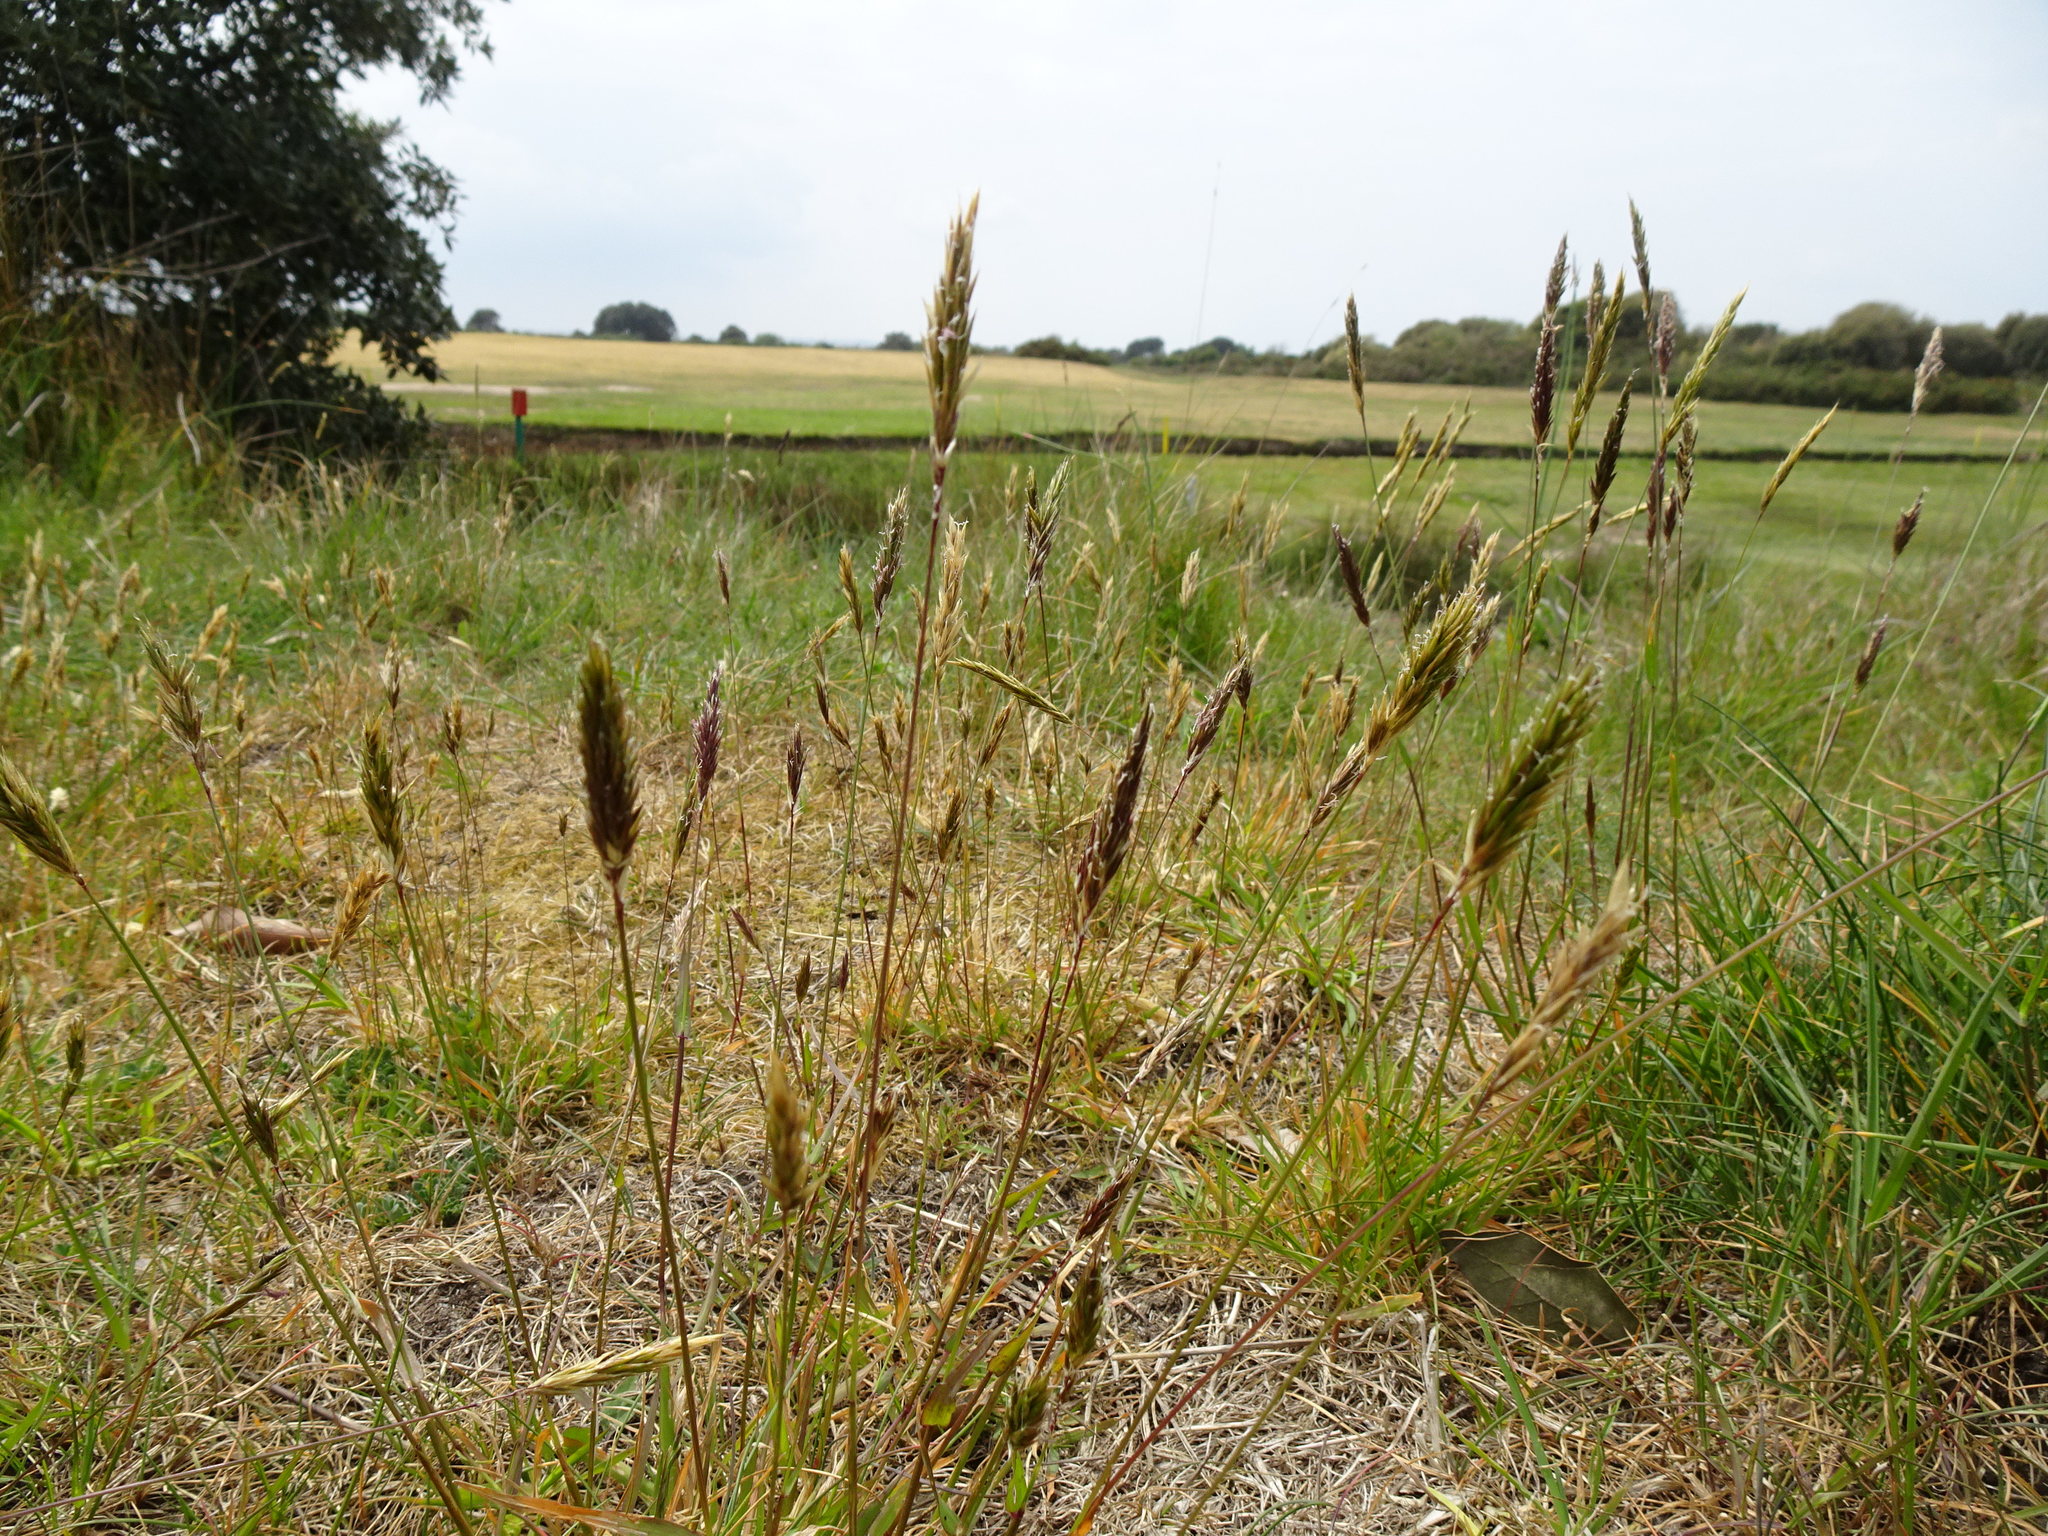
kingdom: Plantae
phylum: Tracheophyta
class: Liliopsida
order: Poales
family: Poaceae
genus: Anthoxanthum
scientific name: Anthoxanthum odoratum
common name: Sweet vernalgrass
